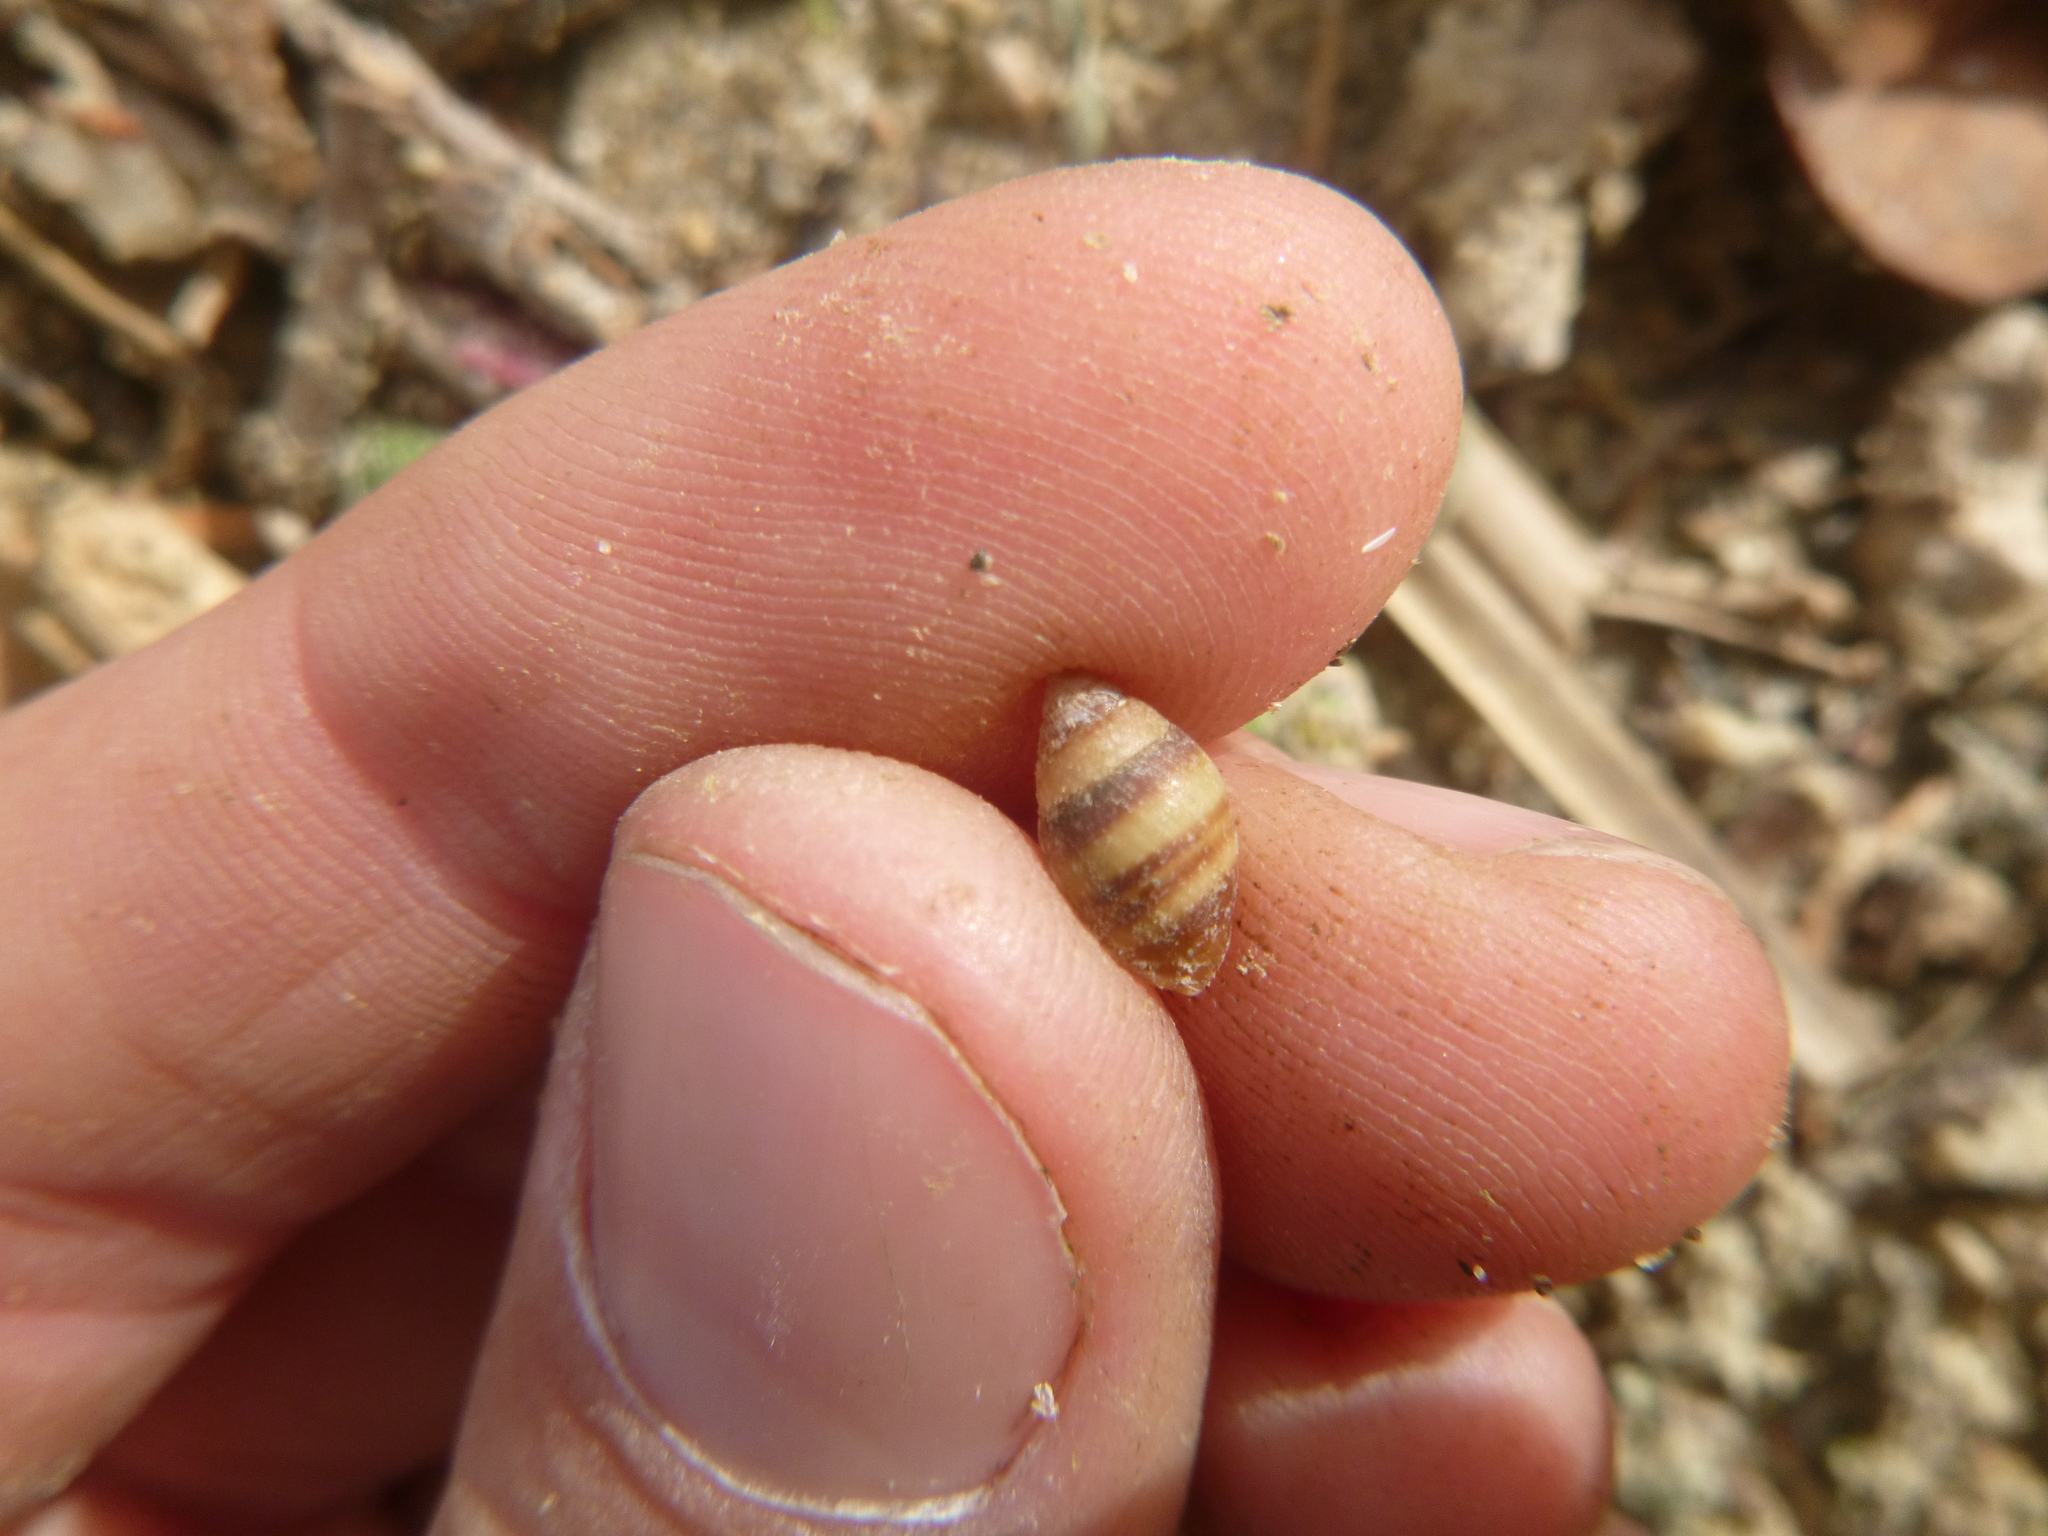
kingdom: Animalia
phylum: Mollusca
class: Gastropoda
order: Ellobiida
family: Ellobiidae
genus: Pleuroloba
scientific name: Pleuroloba costellaris
